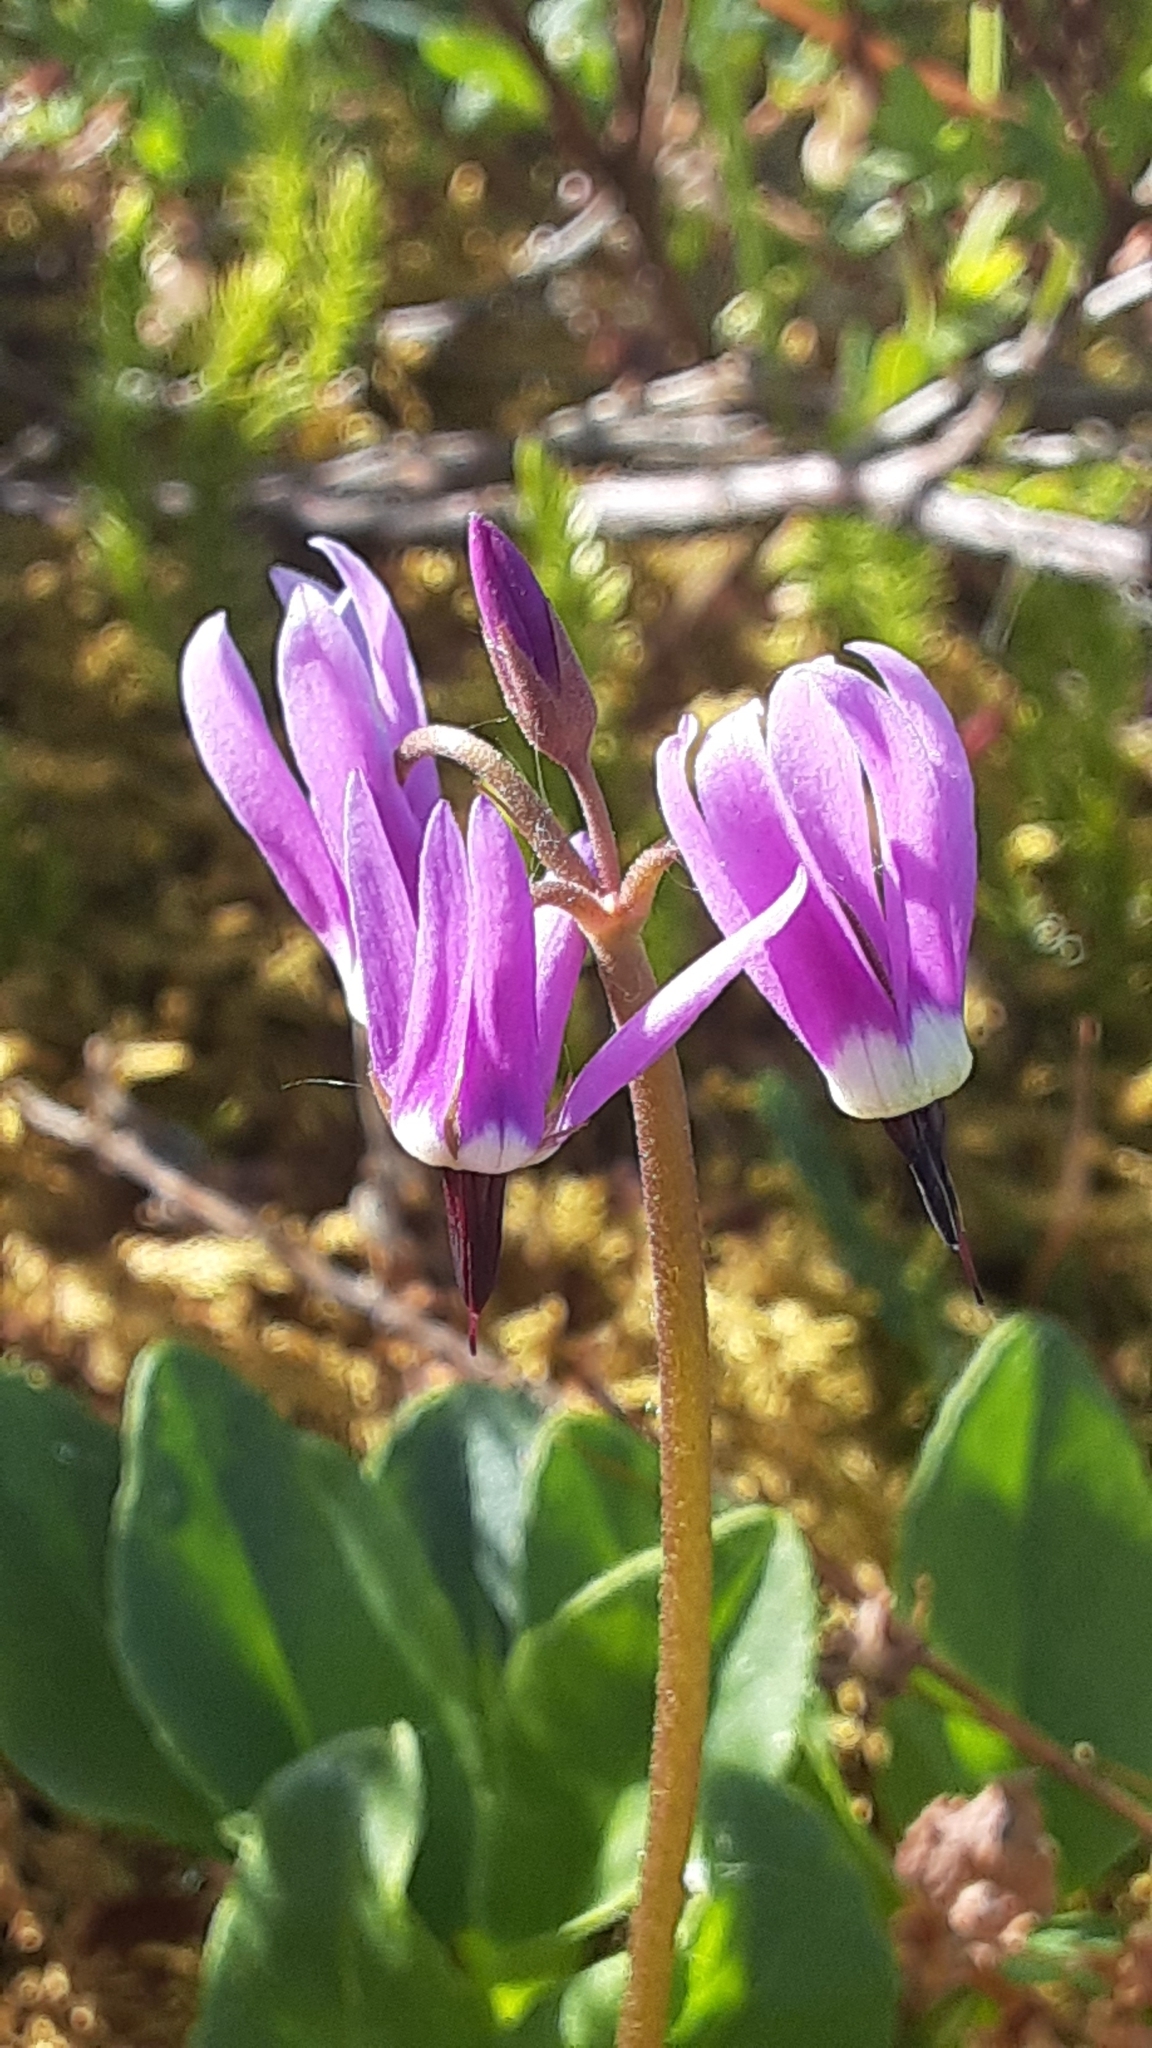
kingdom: Plantae
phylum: Tracheophyta
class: Magnoliopsida
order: Ericales
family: Primulaceae
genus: Dodecatheon
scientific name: Dodecatheon frigidum
